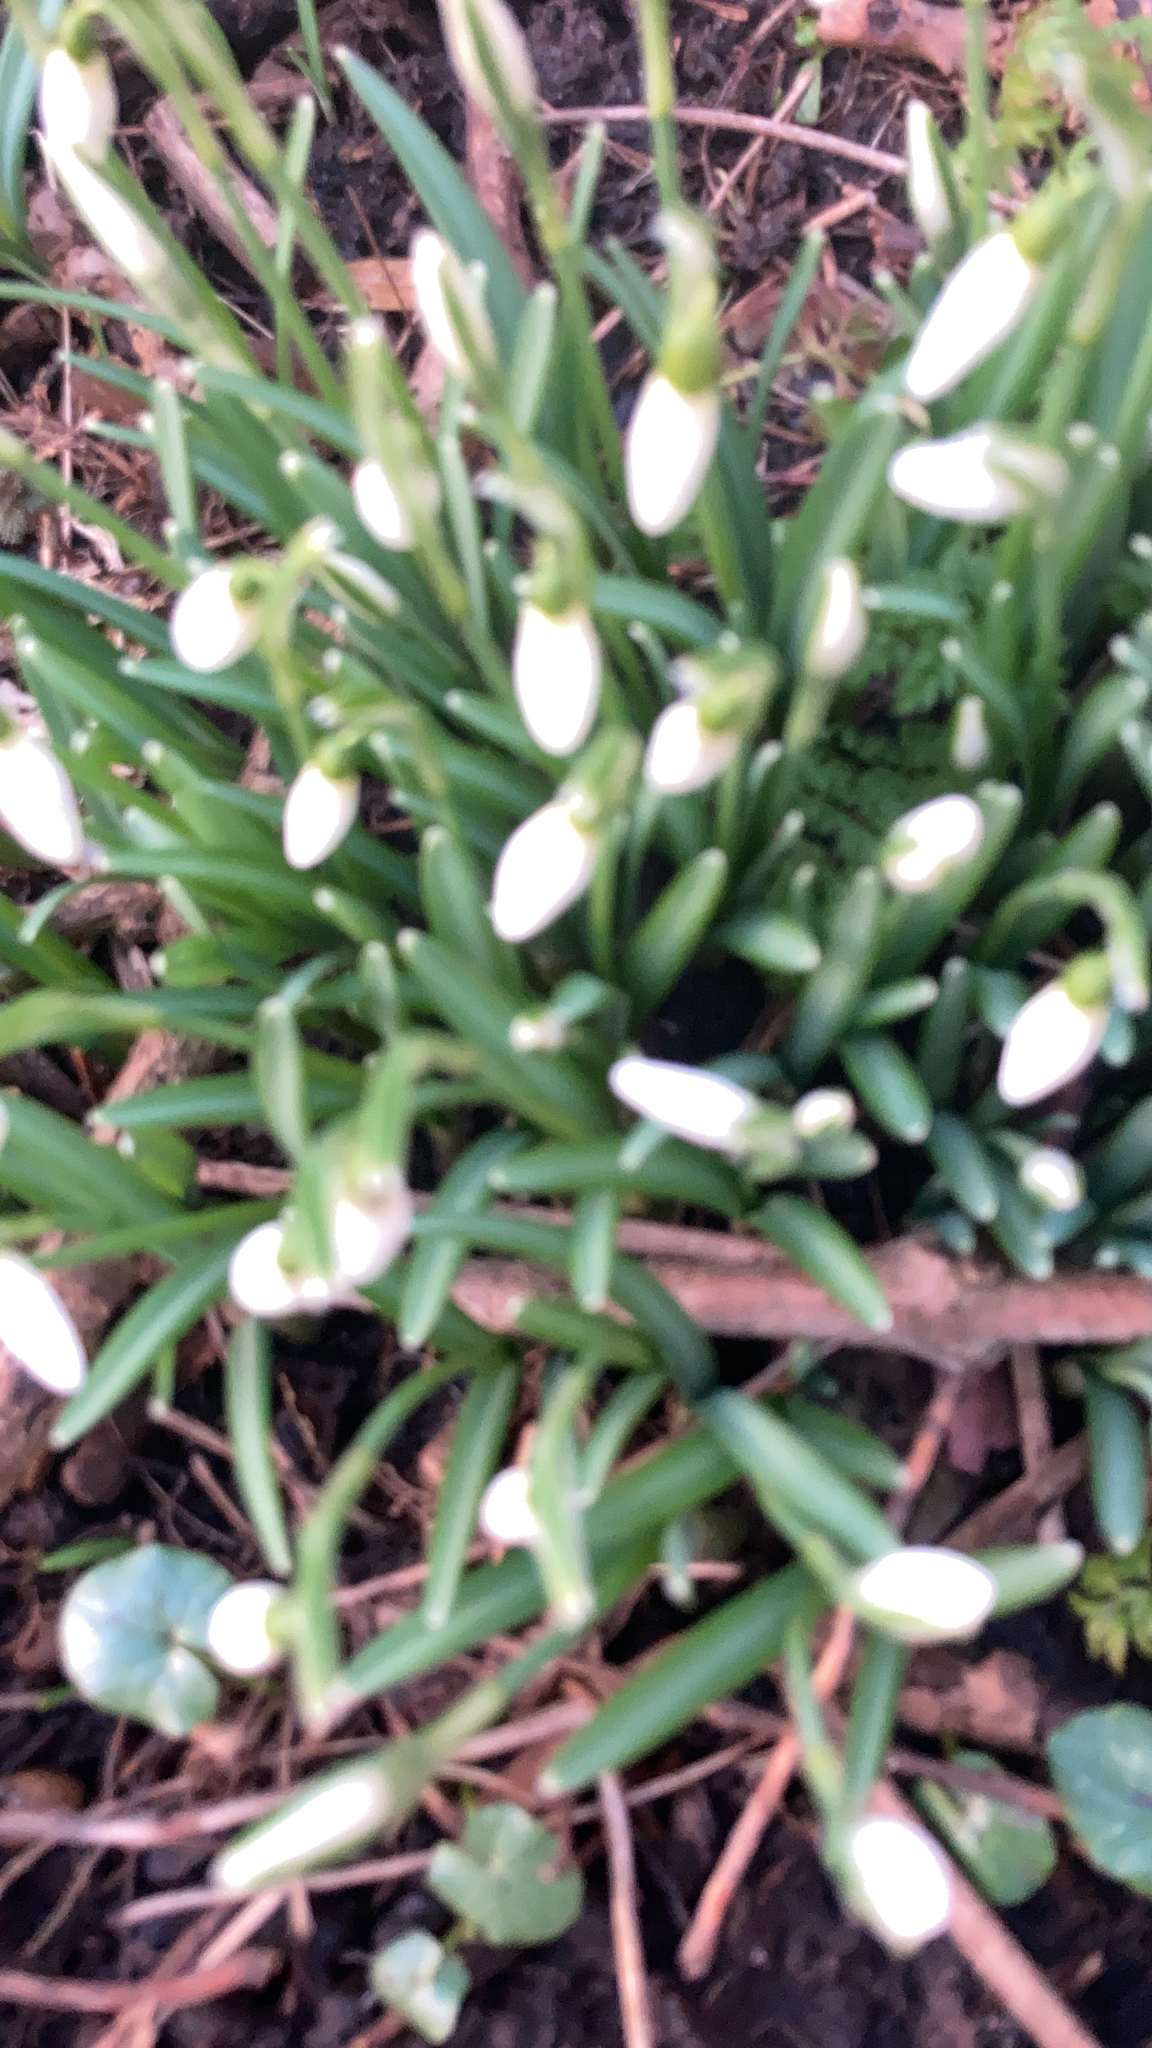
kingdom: Plantae
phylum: Tracheophyta
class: Liliopsida
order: Asparagales
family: Amaryllidaceae
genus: Galanthus
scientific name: Galanthus nivalis
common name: Snowdrop
